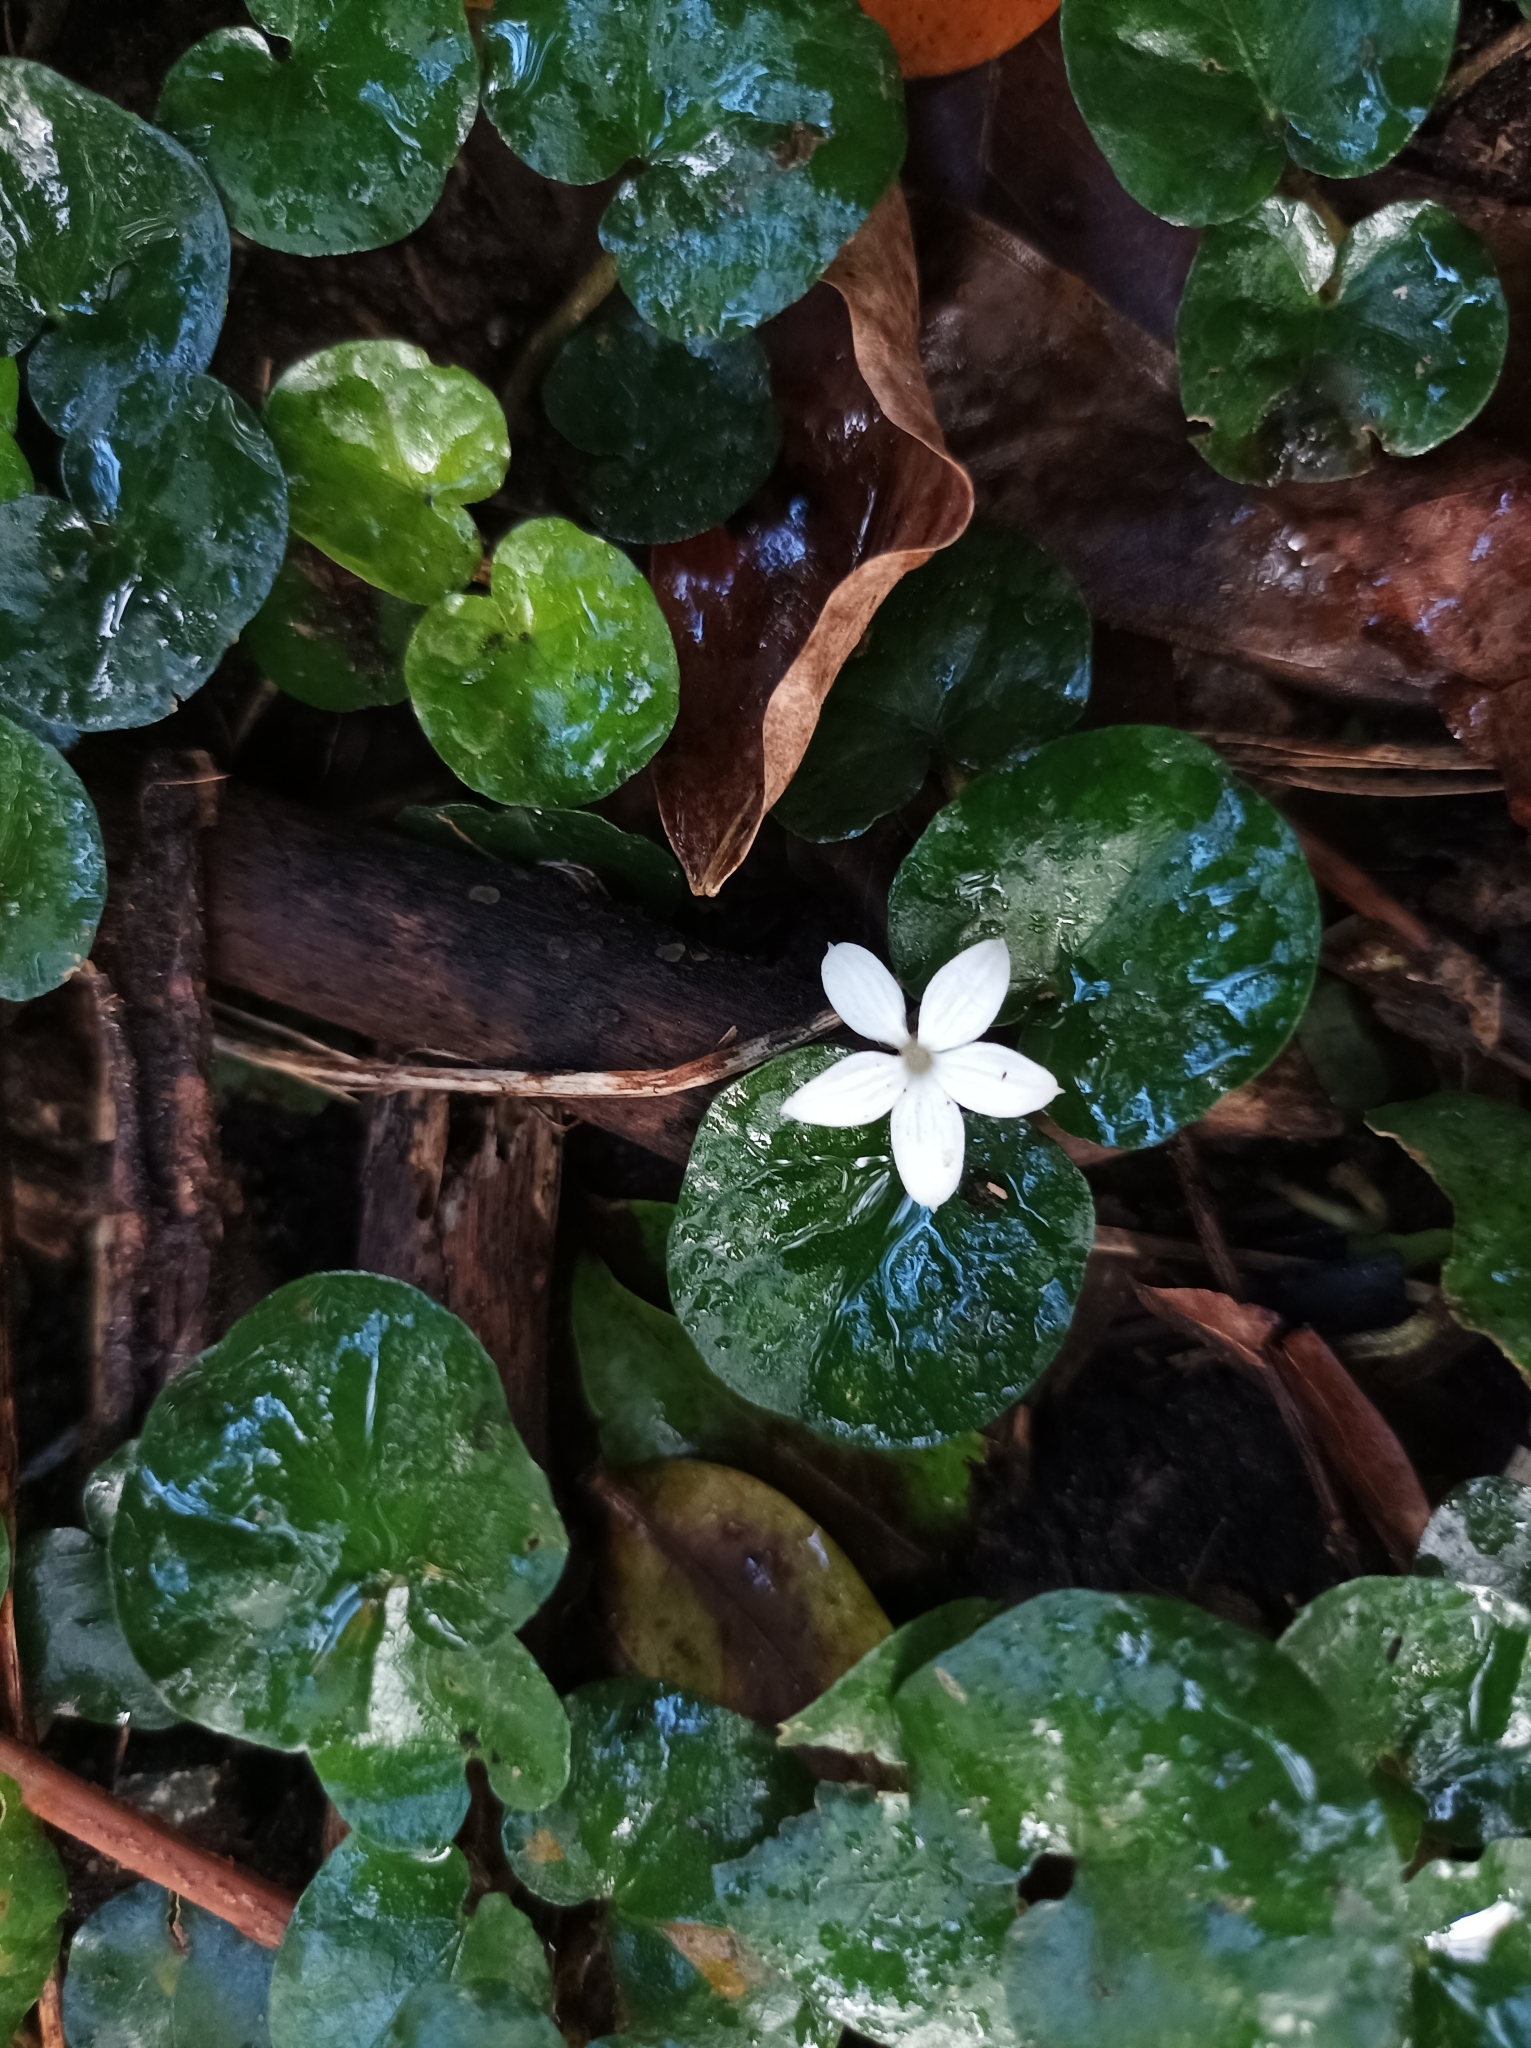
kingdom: Plantae
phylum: Tracheophyta
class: Magnoliopsida
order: Gentianales
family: Rubiaceae
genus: Geophila
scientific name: Geophila herbacea
